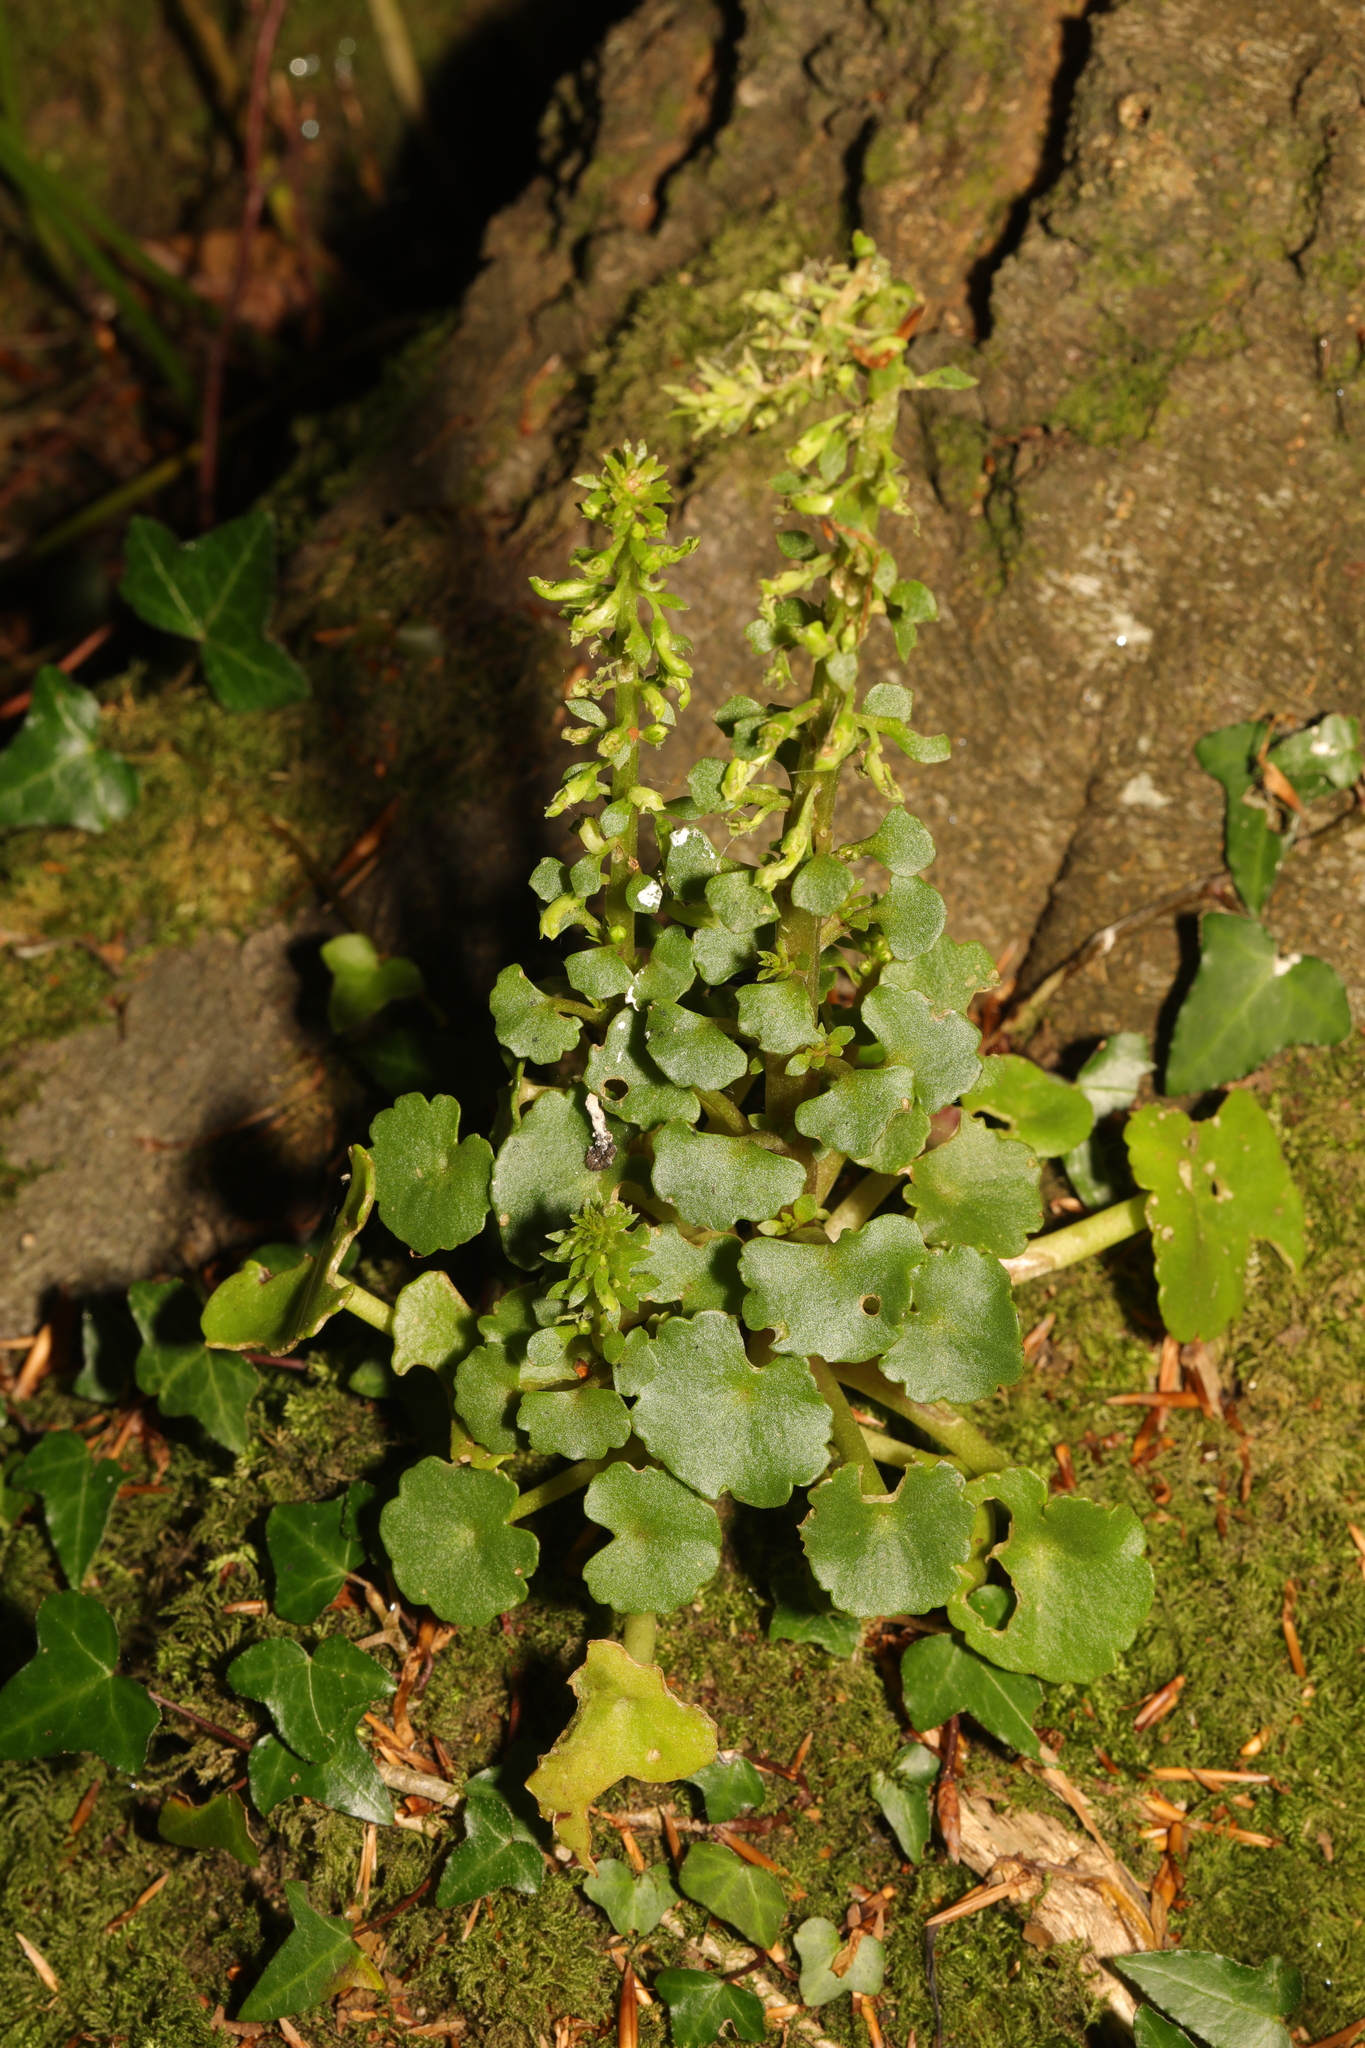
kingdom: Plantae
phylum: Tracheophyta
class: Magnoliopsida
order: Saxifragales
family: Crassulaceae
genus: Umbilicus
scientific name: Umbilicus rupestris
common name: Navelwort
